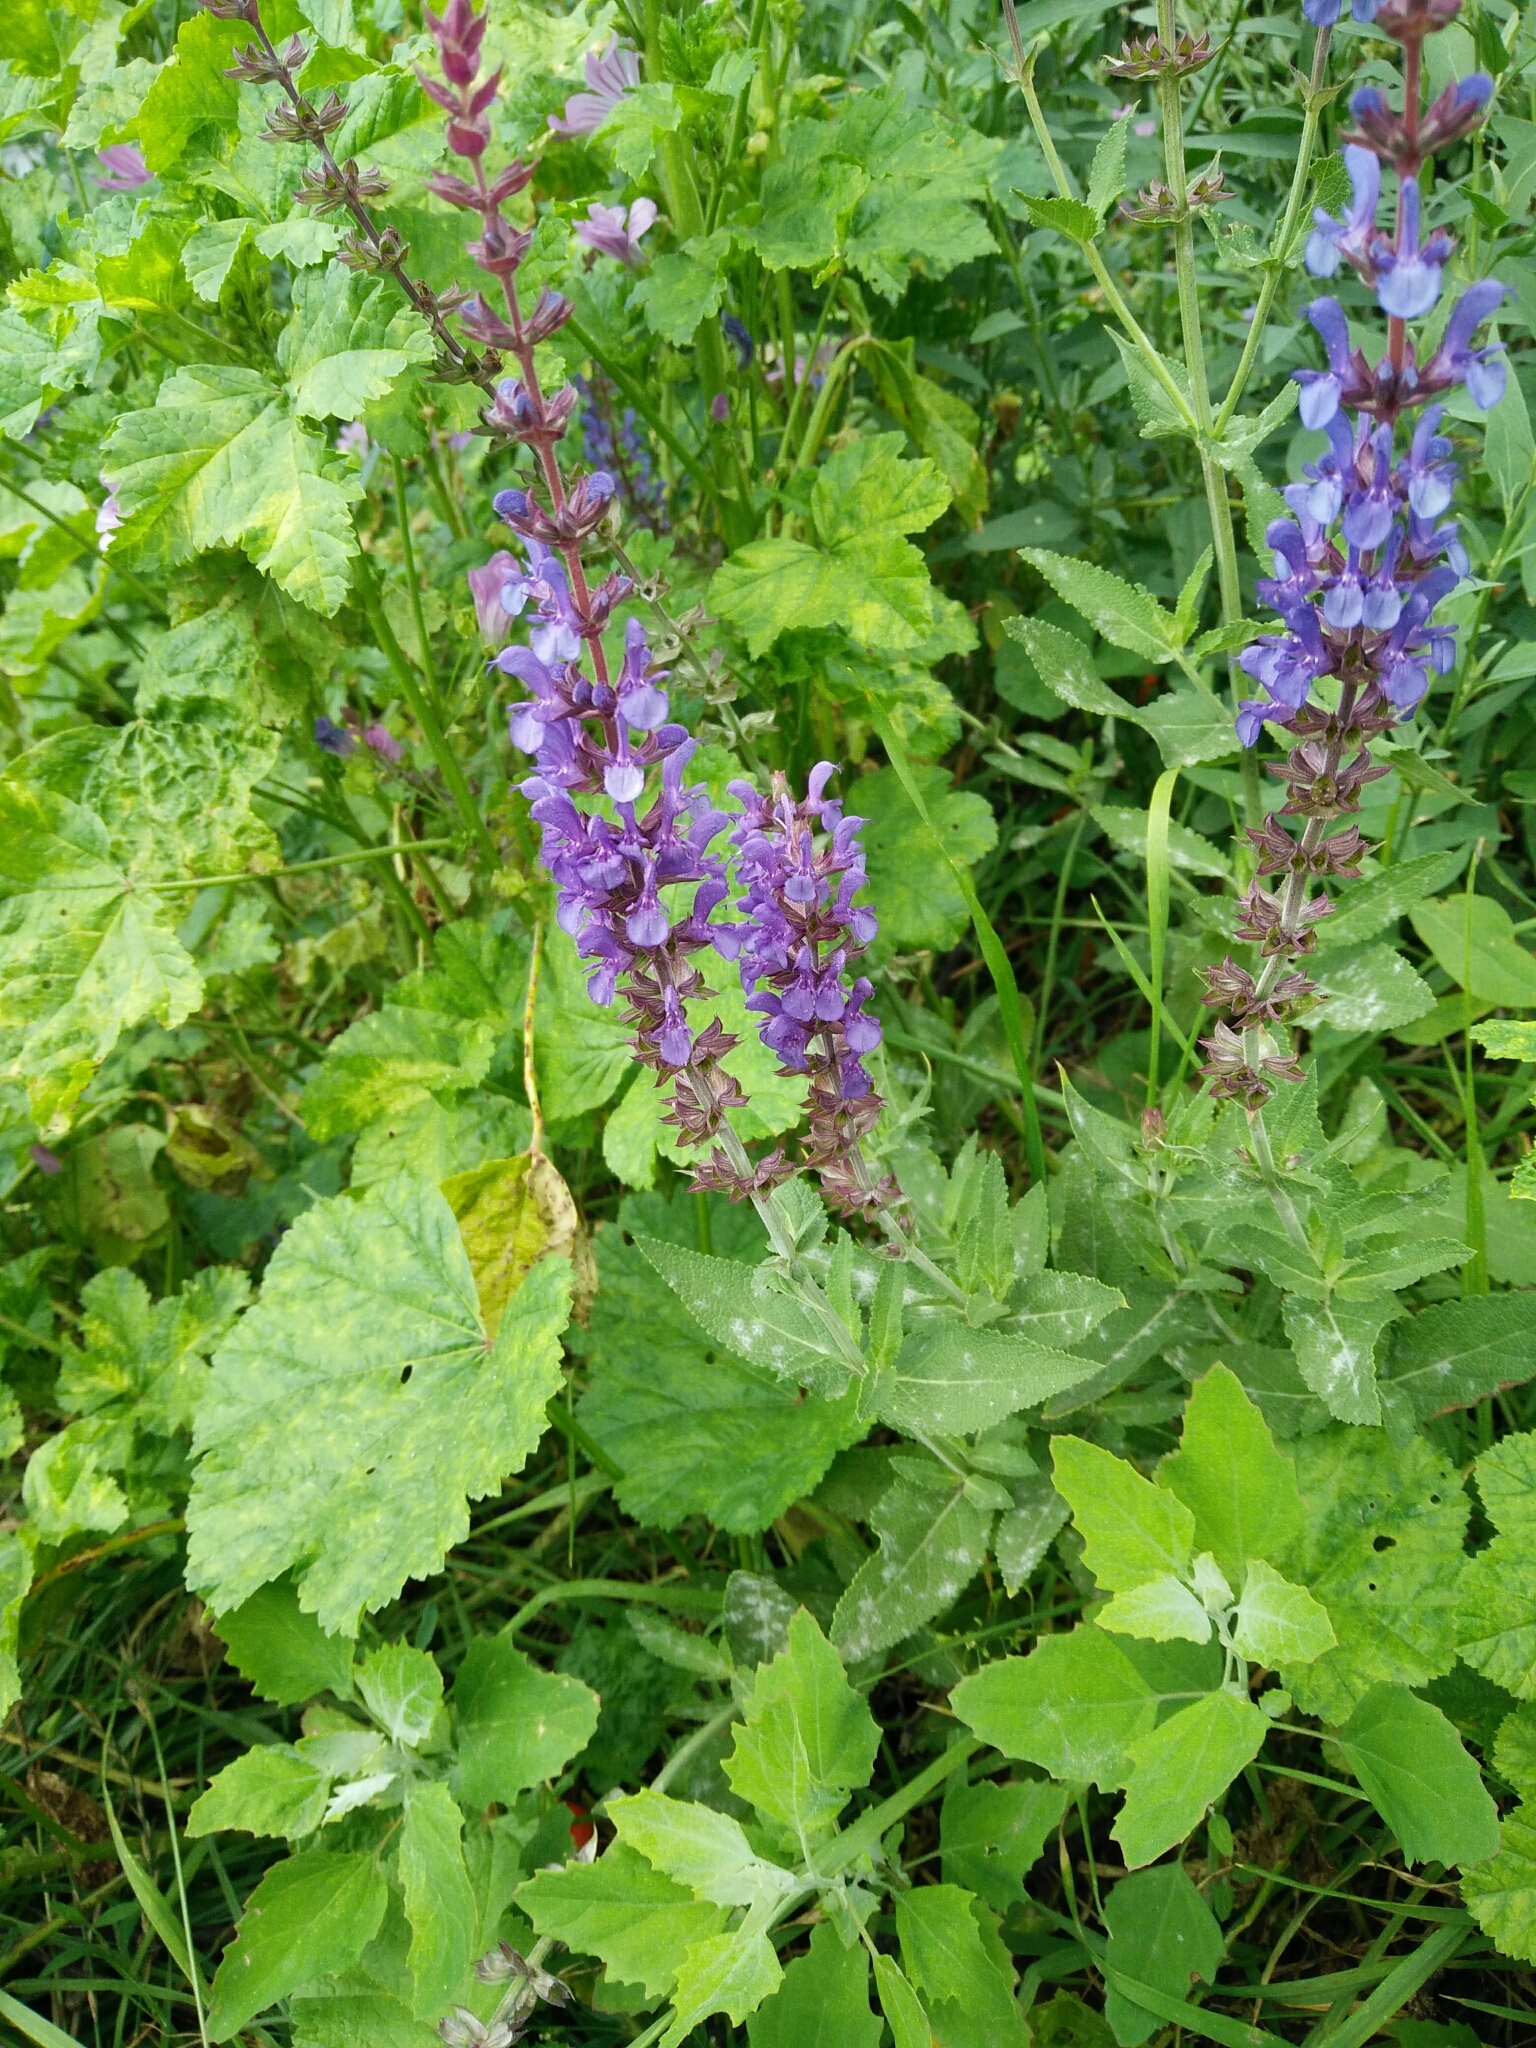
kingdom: Plantae
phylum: Tracheophyta
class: Magnoliopsida
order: Lamiales
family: Lamiaceae
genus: Salvia
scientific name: Salvia nemorosa
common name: Balkan clary
